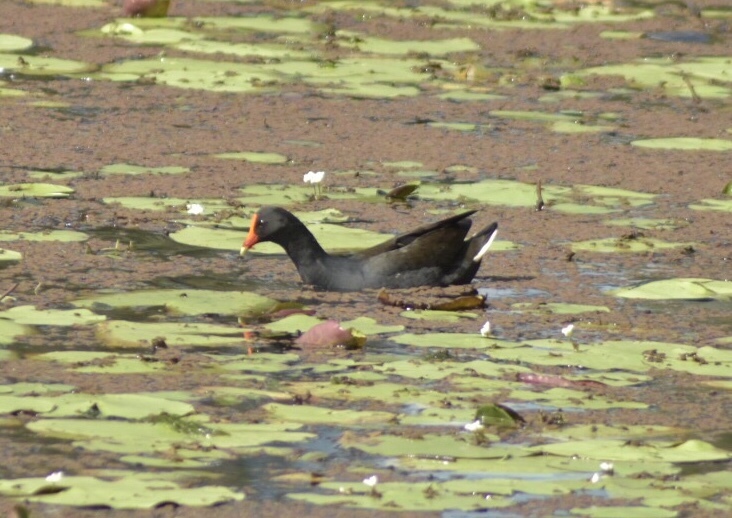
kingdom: Animalia
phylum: Chordata
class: Aves
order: Gruiformes
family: Rallidae
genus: Gallinula
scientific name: Gallinula tenebrosa
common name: Dusky moorhen
